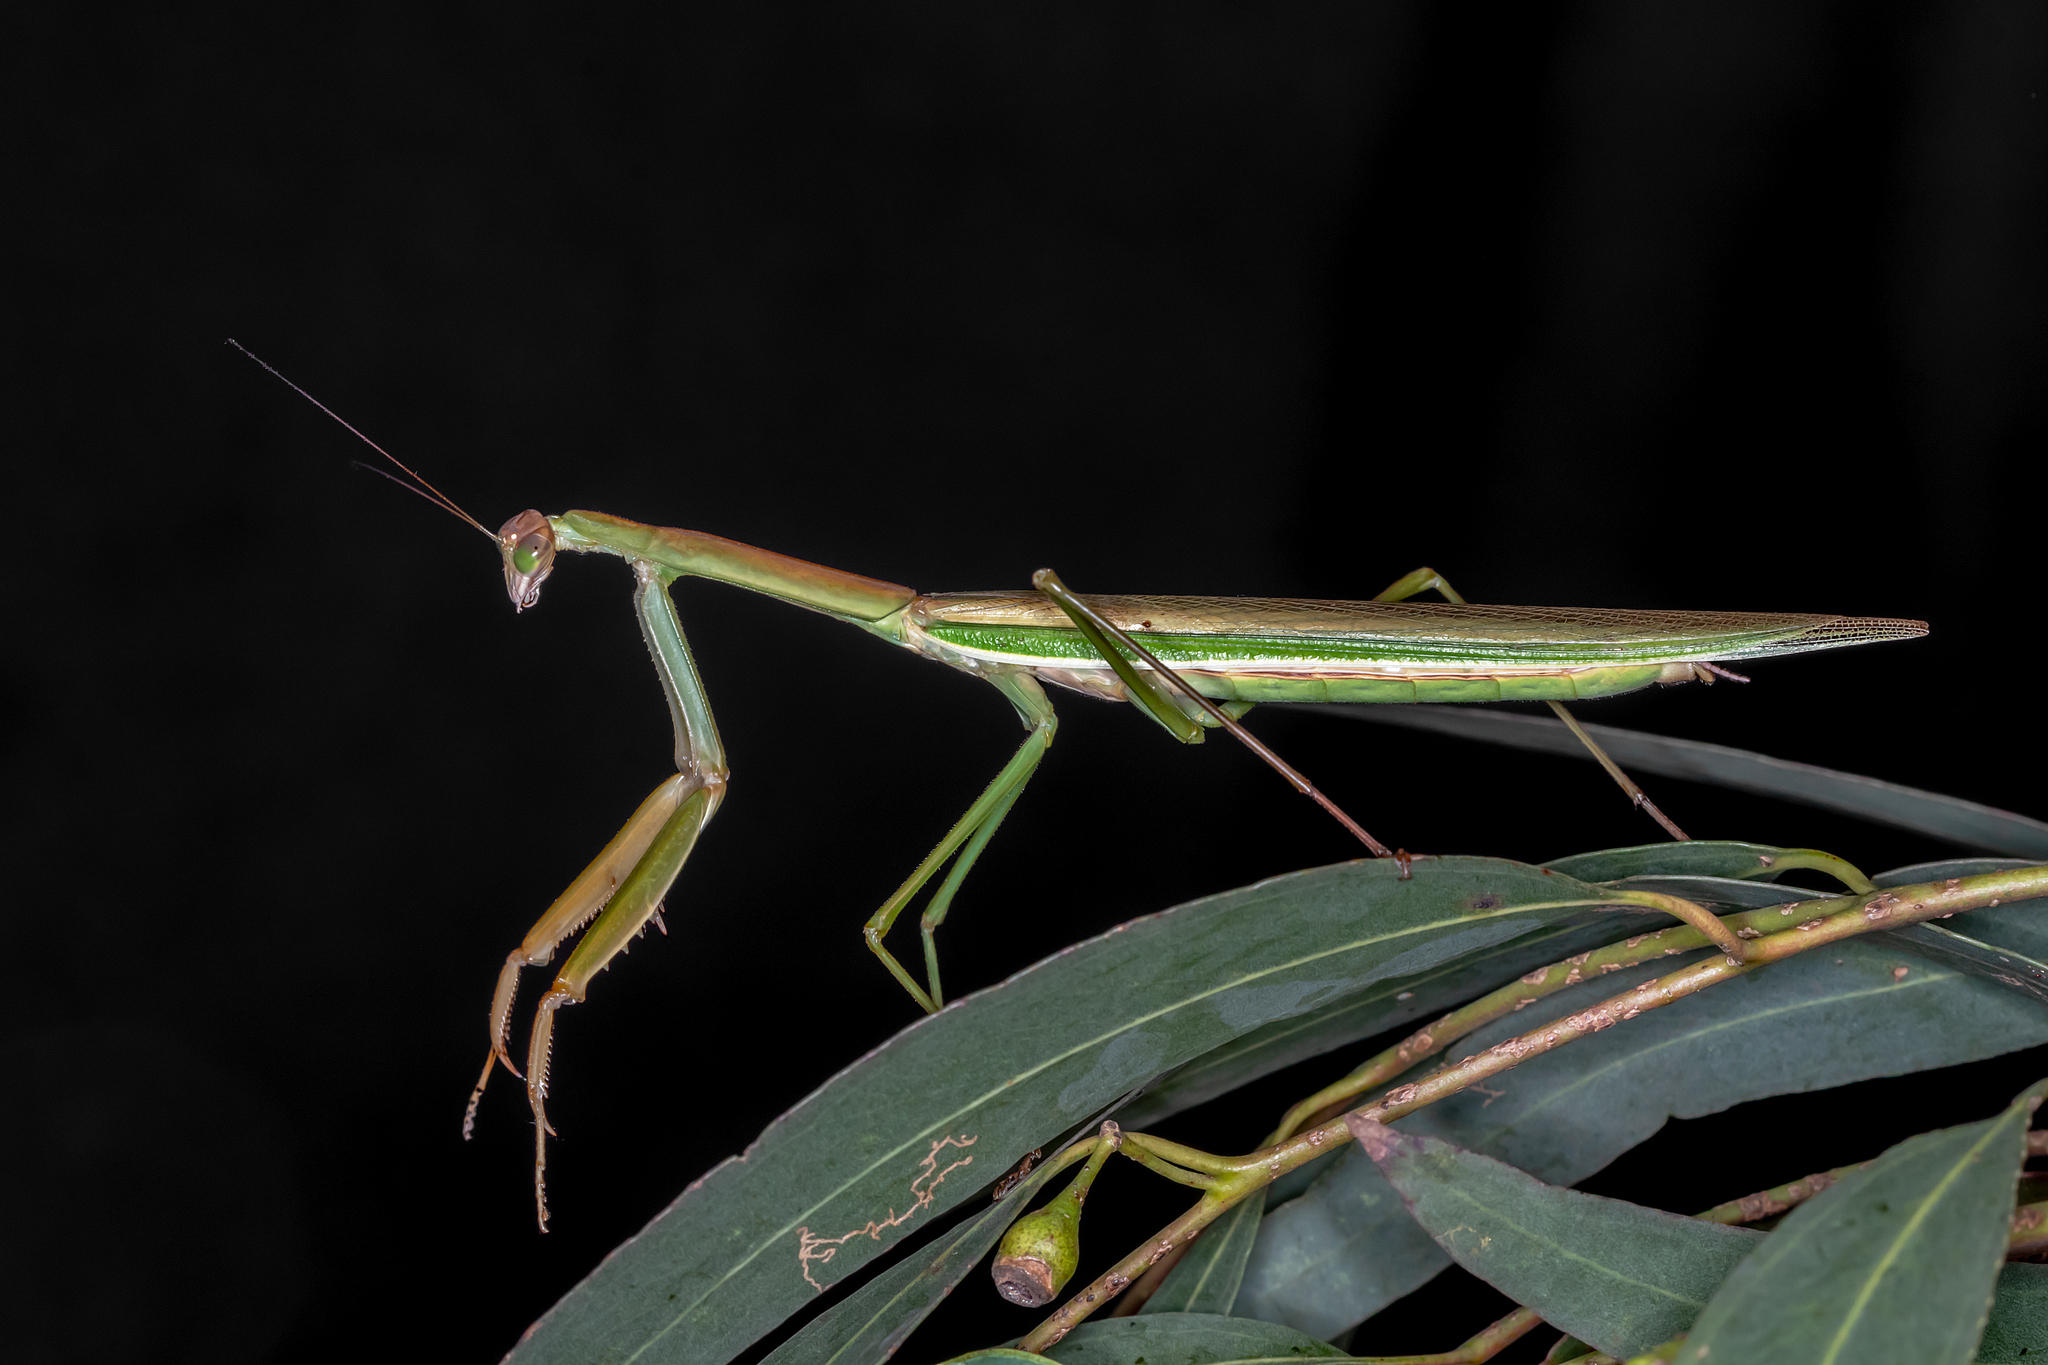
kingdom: Animalia
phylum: Arthropoda
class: Insecta
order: Mantodea
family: Mantidae
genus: Tenodera
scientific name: Tenodera australasiae
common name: Purple-winged mantis
